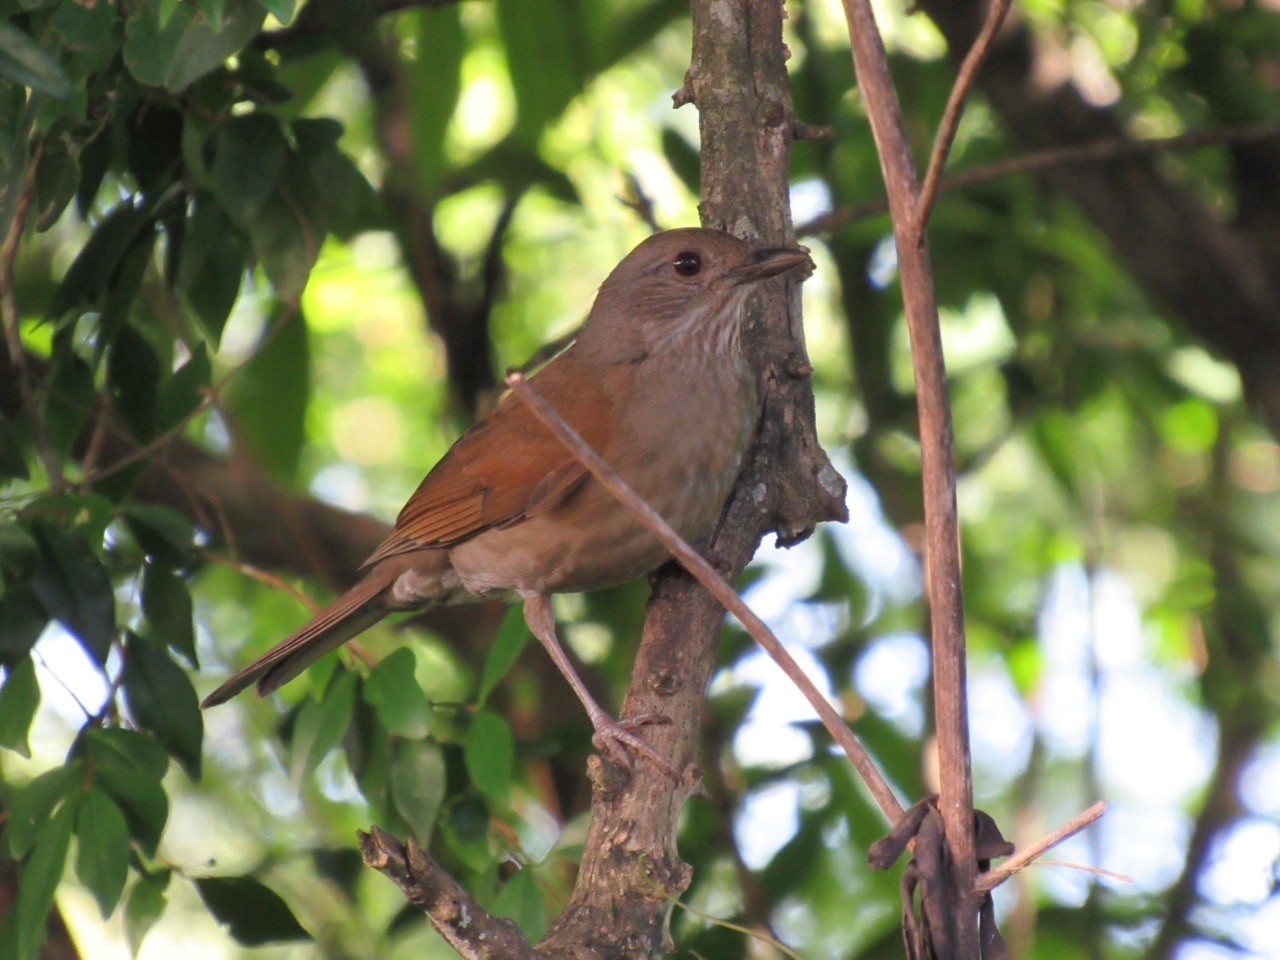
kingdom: Animalia
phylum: Chordata
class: Aves
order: Passeriformes
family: Turdidae
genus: Turdus
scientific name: Turdus leucomelas
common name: Pale-breasted thrush
